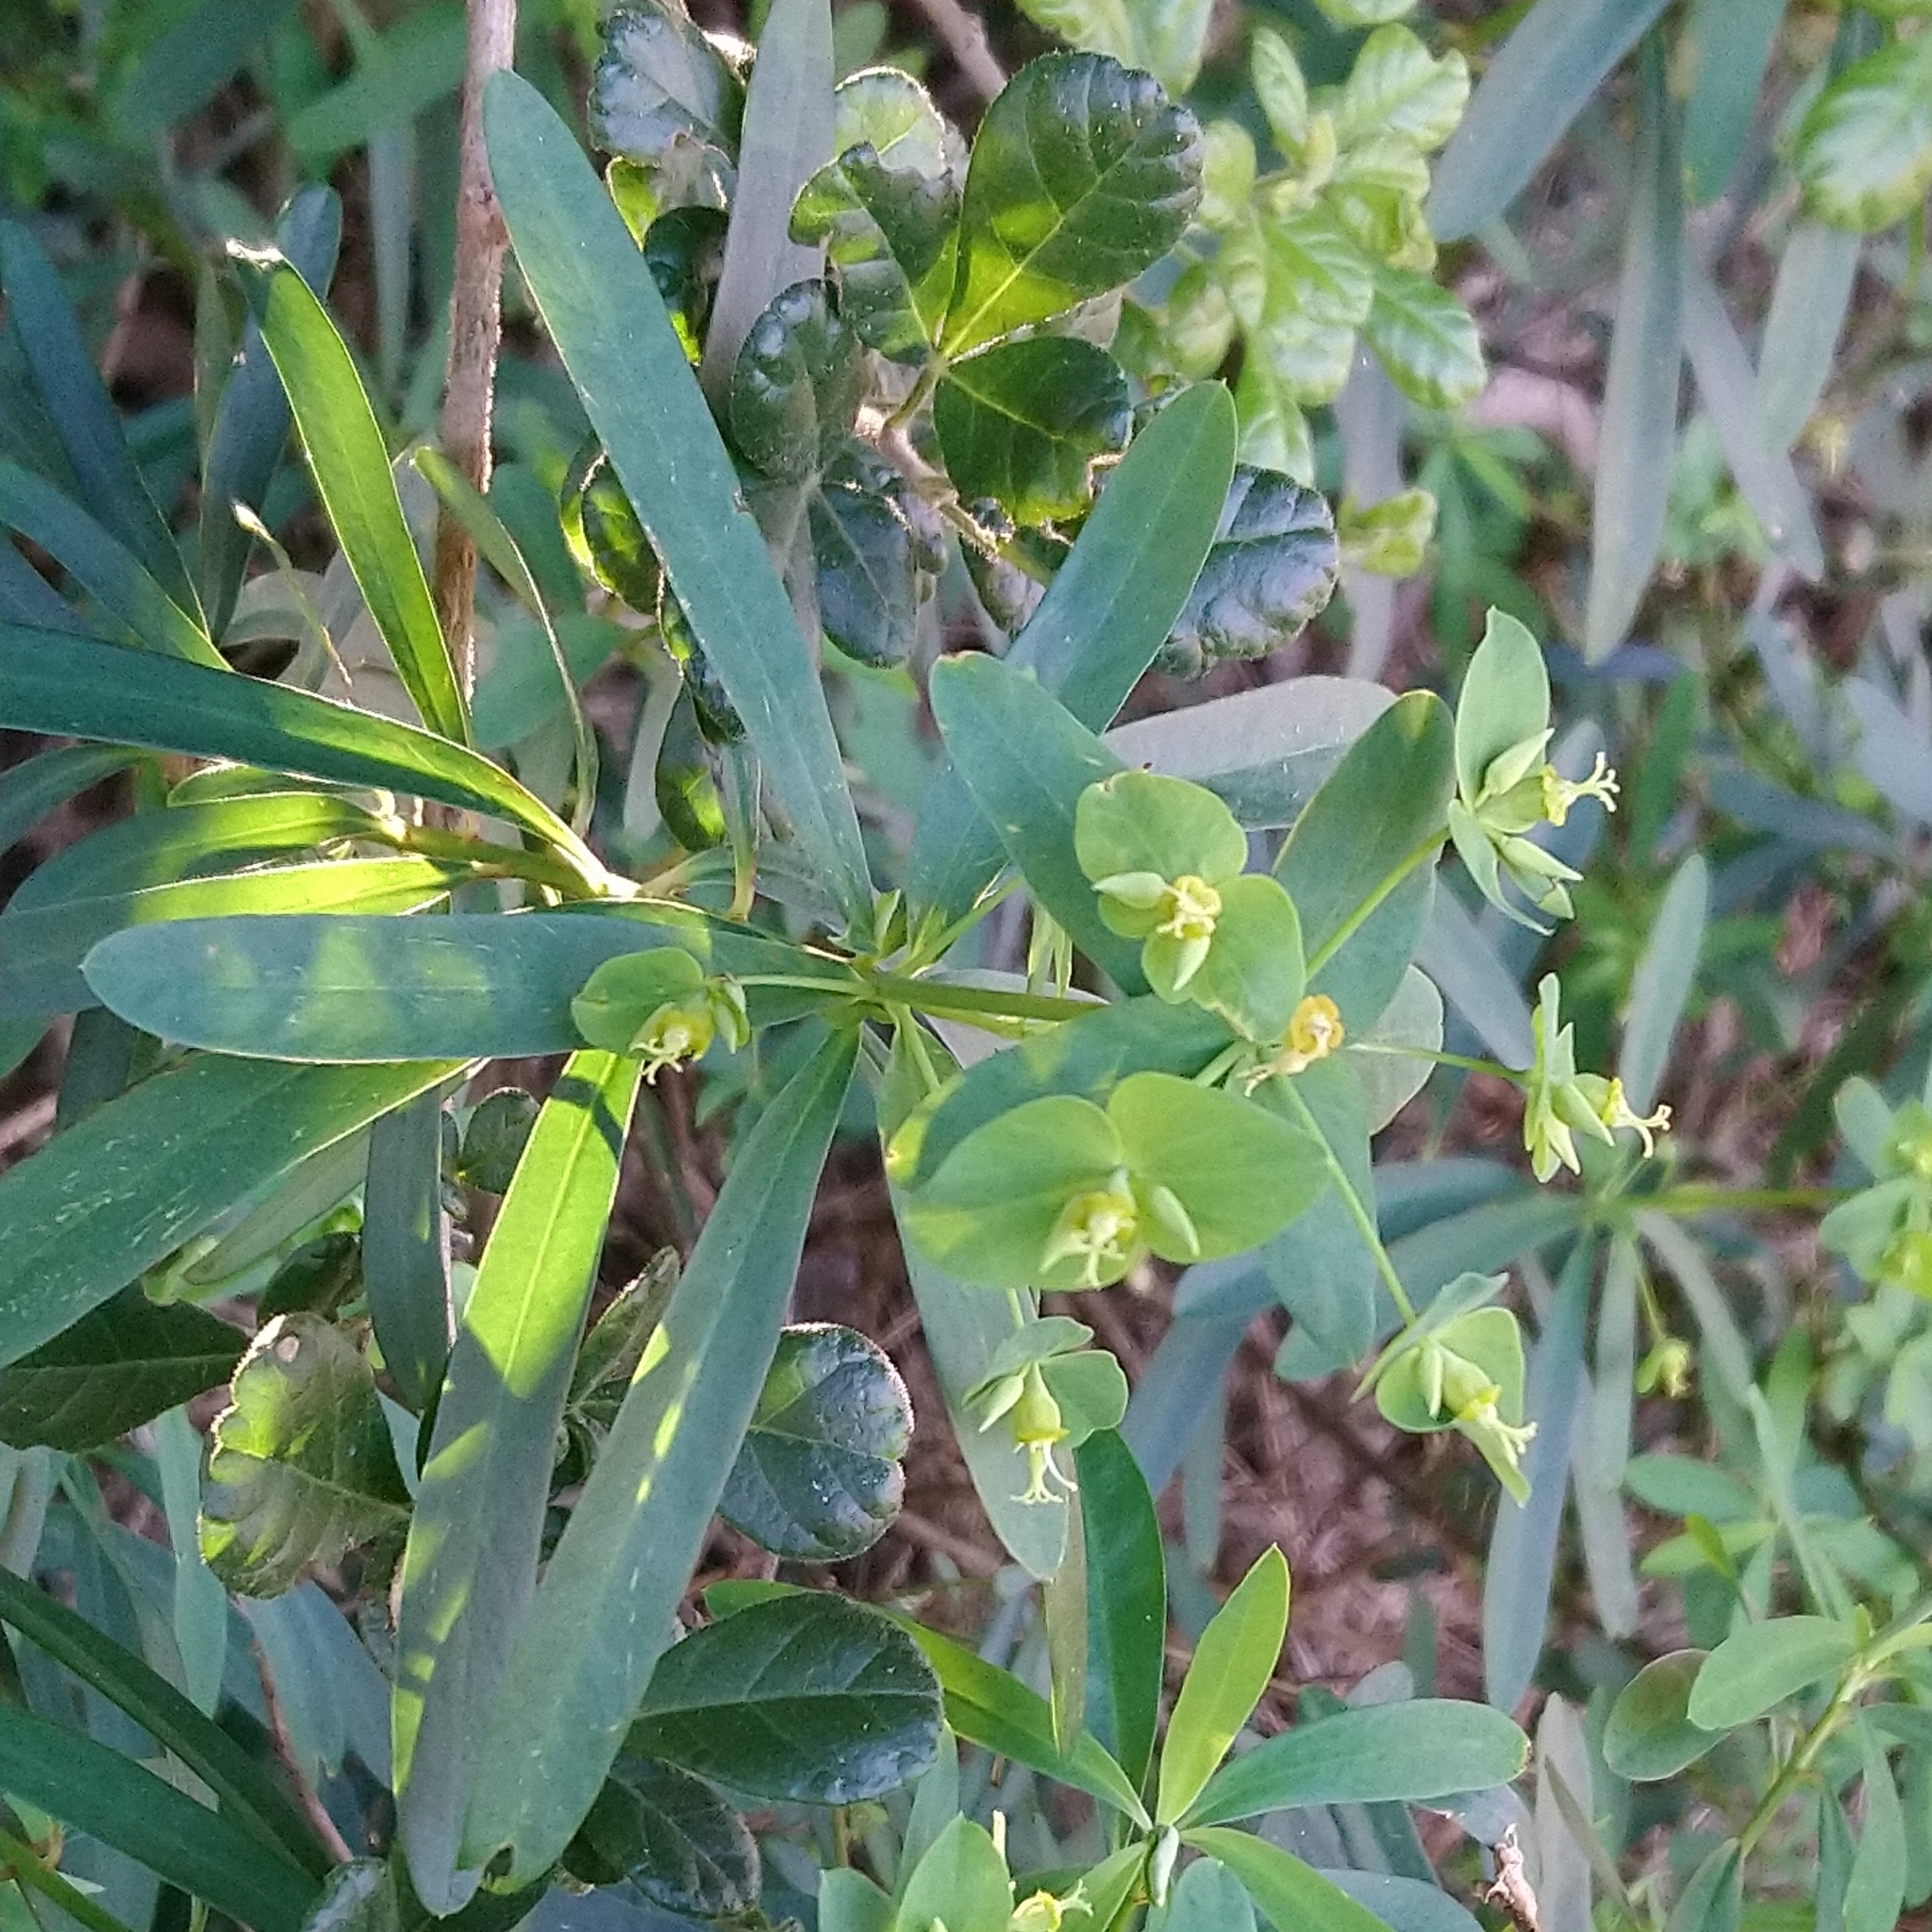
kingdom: Plantae
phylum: Tracheophyta
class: Magnoliopsida
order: Malpighiales
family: Euphorbiaceae
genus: Euphorbia
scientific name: Euphorbia kraussiana
